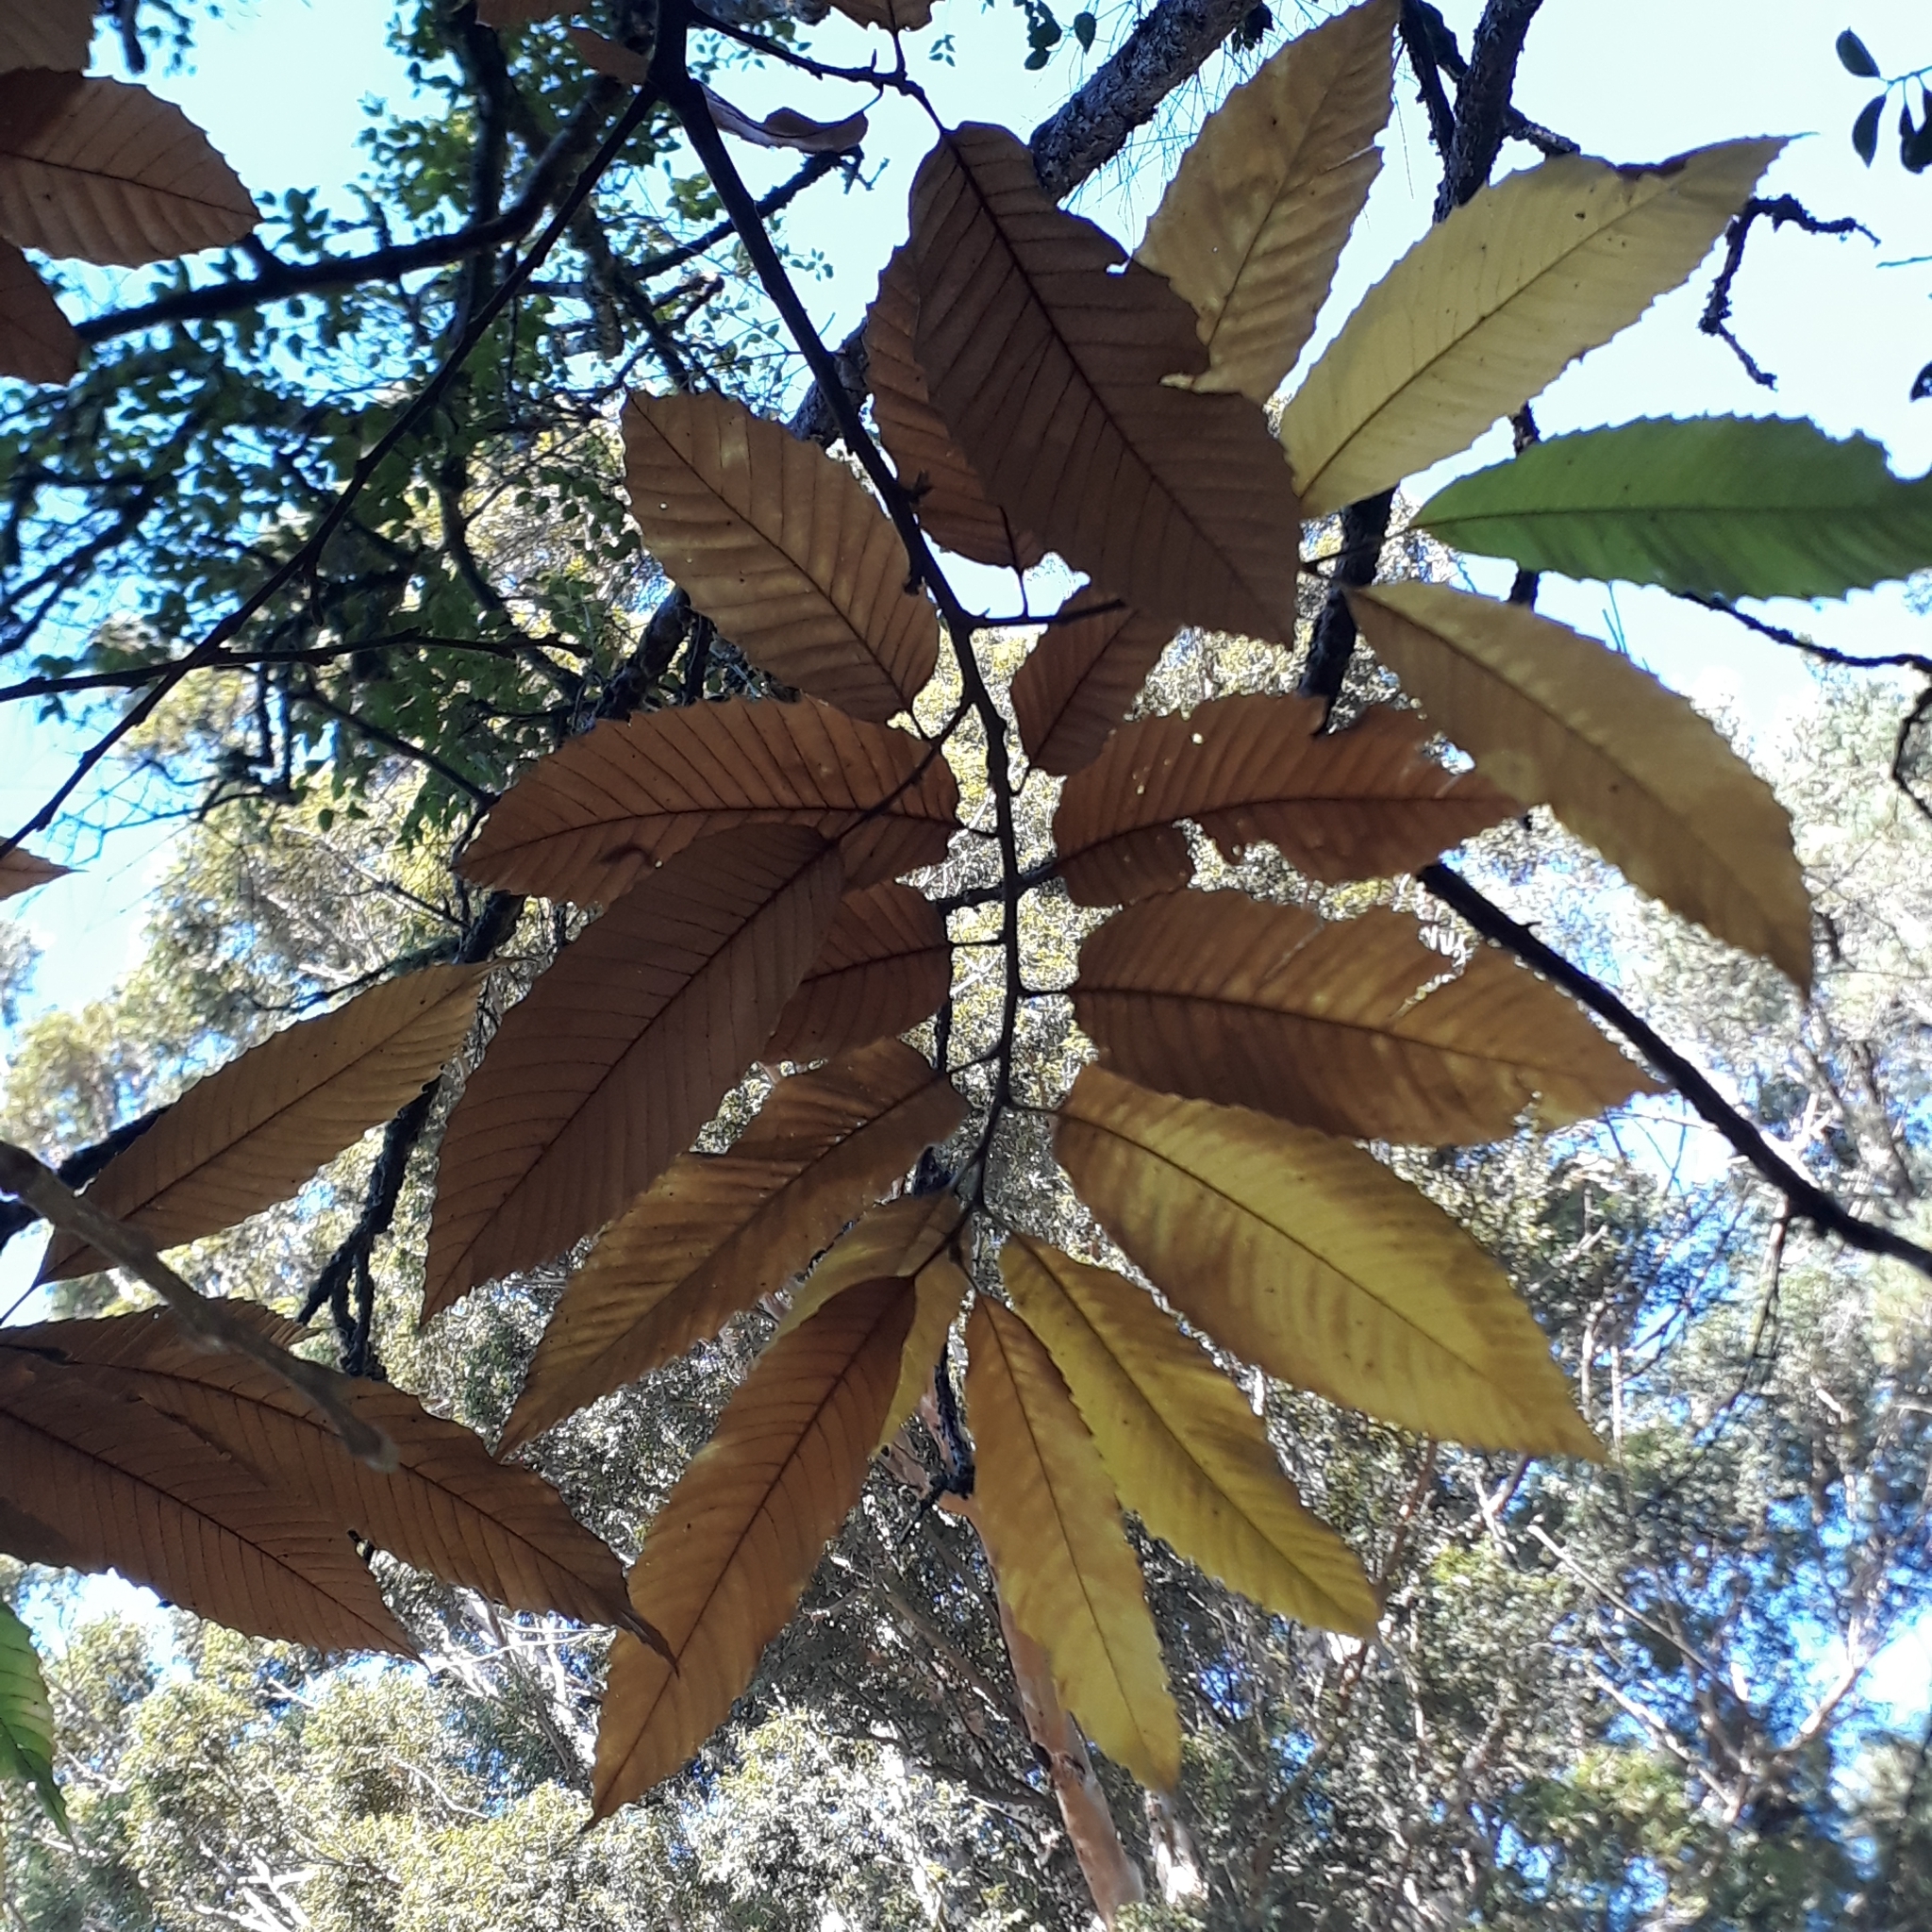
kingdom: Plantae
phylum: Tracheophyta
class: Magnoliopsida
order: Fagales
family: Fagaceae
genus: Castanea
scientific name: Castanea sativa
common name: Sweet chestnut
